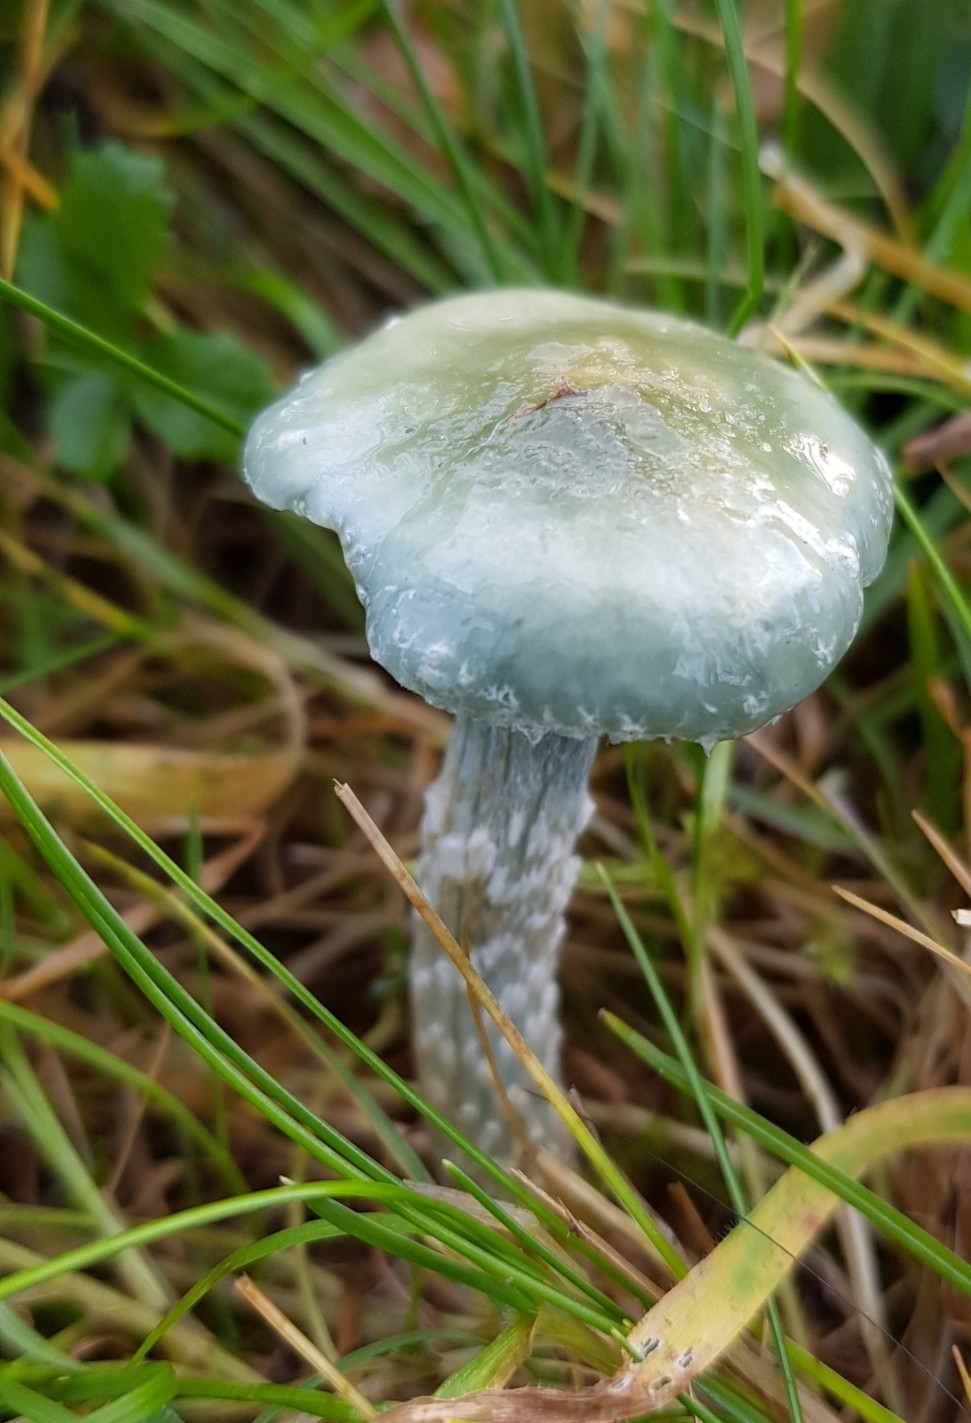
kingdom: Fungi
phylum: Basidiomycota
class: Agaricomycetes
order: Agaricales
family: Strophariaceae
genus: Stropharia
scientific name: Stropharia caerulea
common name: Blue roundhead
